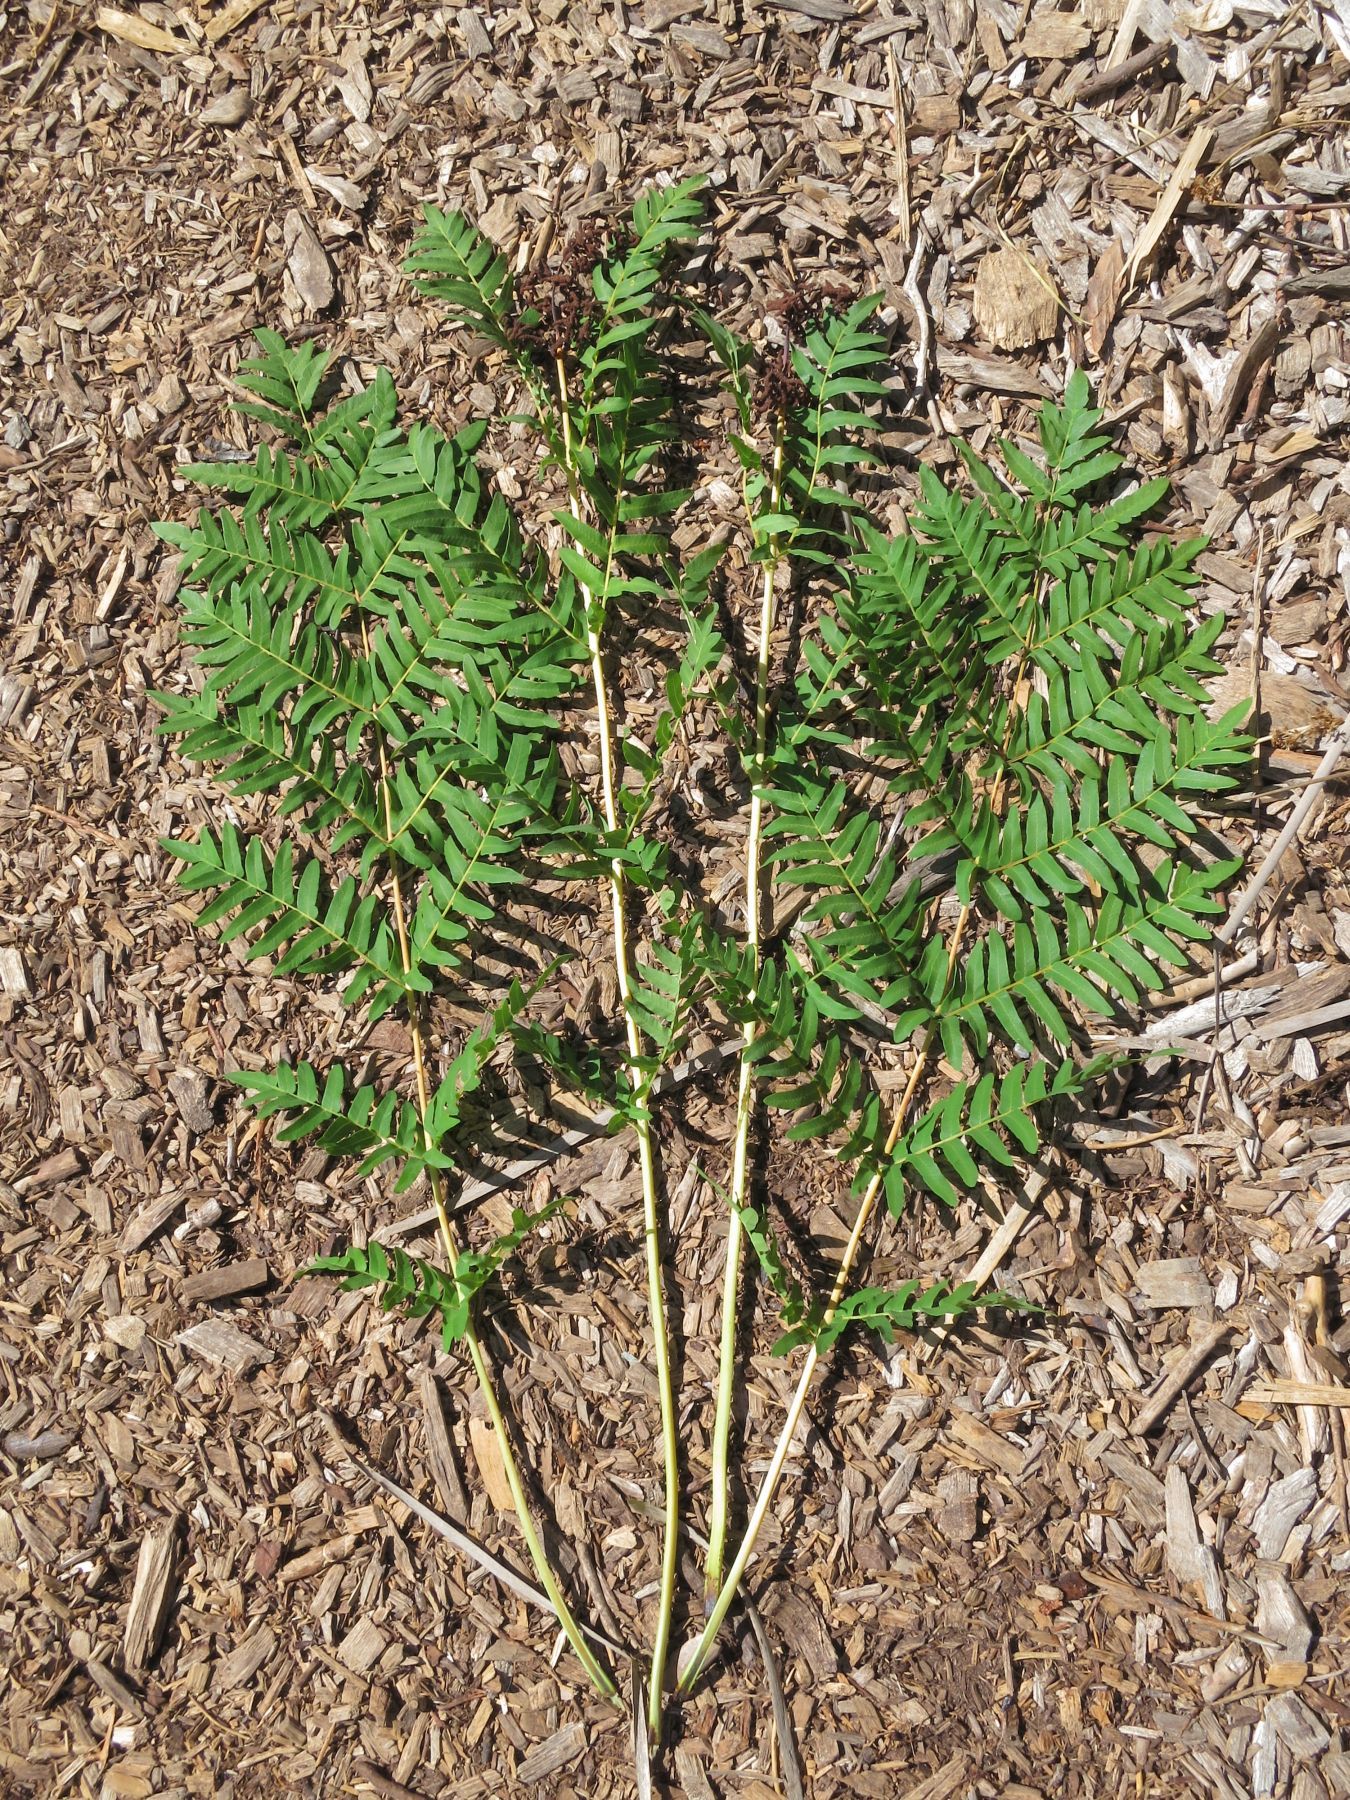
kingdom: Plantae
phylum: Tracheophyta
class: Polypodiopsida
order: Osmundales
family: Osmundaceae
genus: Osmunda
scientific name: Osmunda regalis
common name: Royal fern
